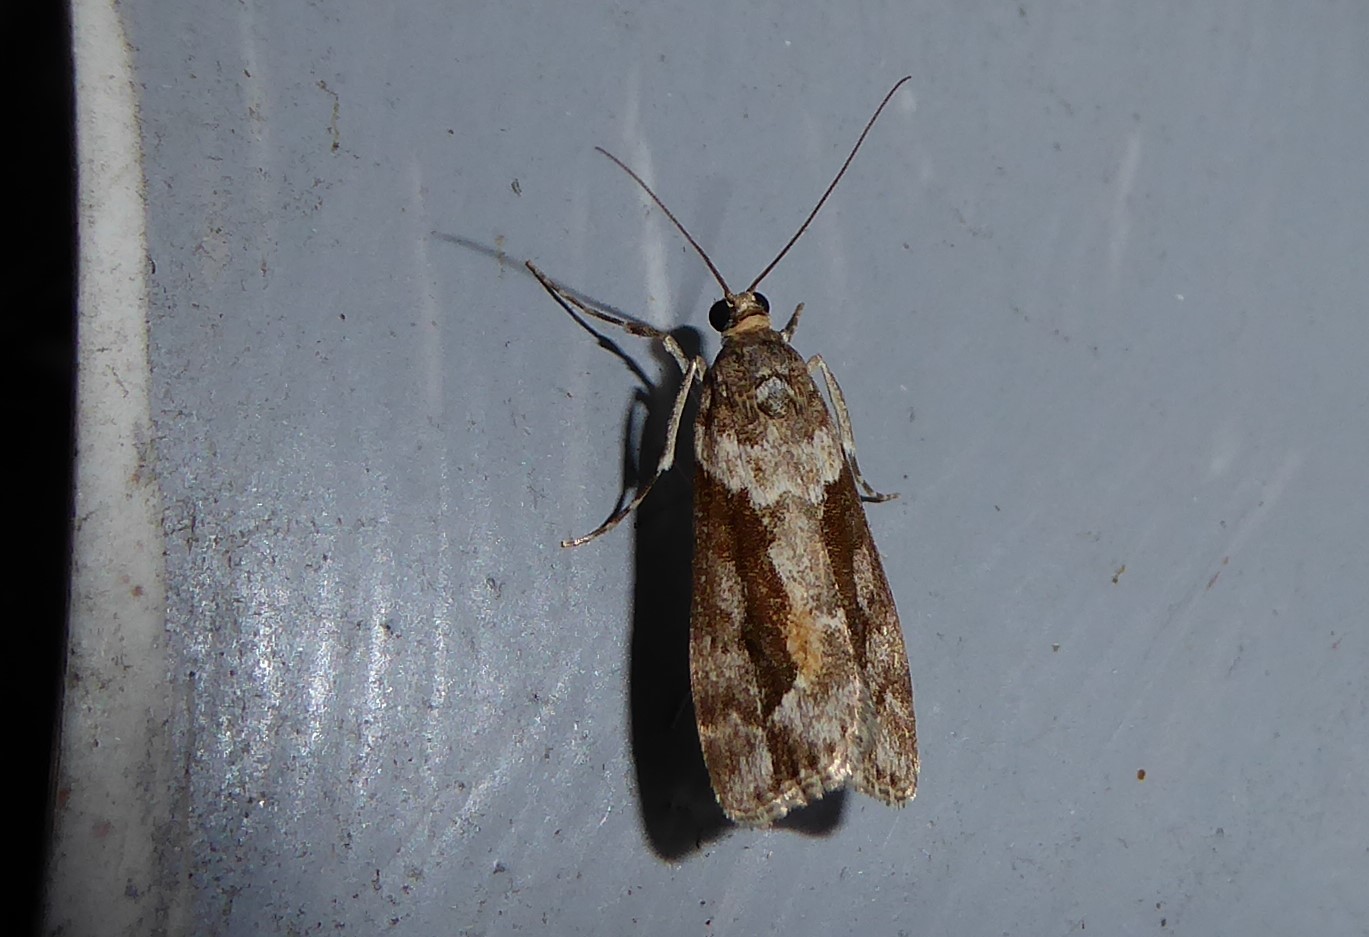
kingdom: Animalia
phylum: Arthropoda
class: Insecta
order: Lepidoptera
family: Crambidae
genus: Eudonia
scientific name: Eudonia submarginalis
